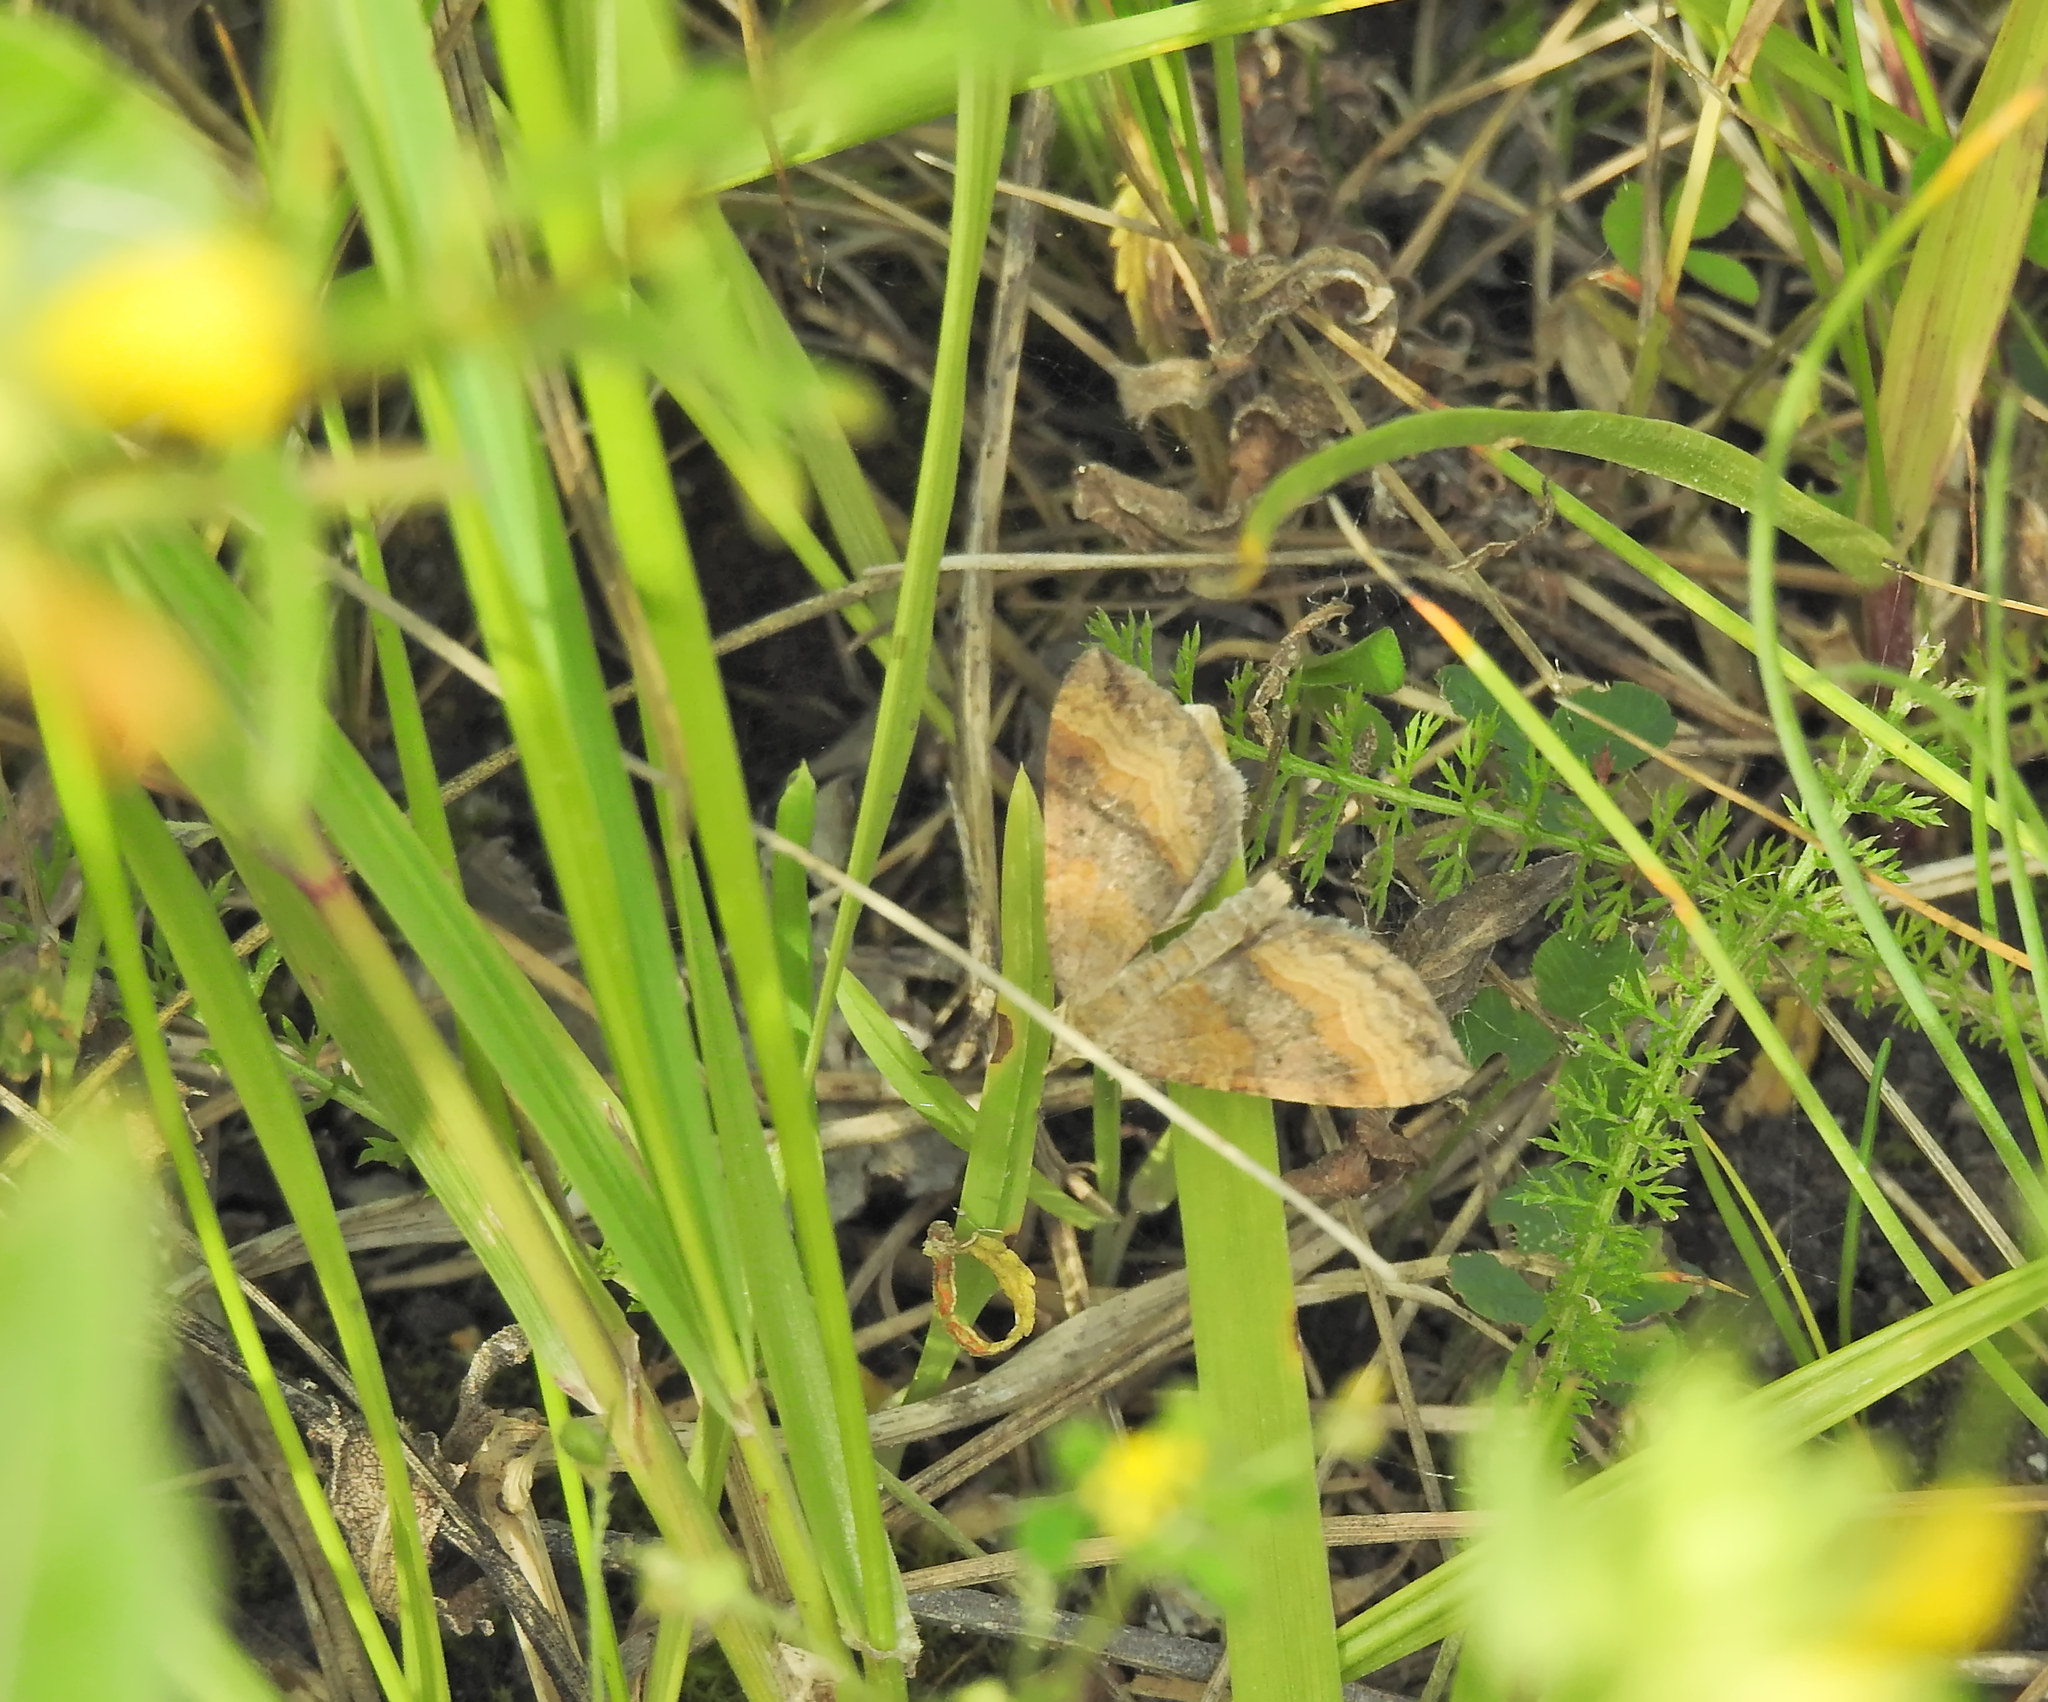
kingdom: Animalia
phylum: Arthropoda
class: Insecta
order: Lepidoptera
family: Geometridae
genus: Scotopteryx
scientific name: Scotopteryx chenopodiata
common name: Shaded broad-bar
